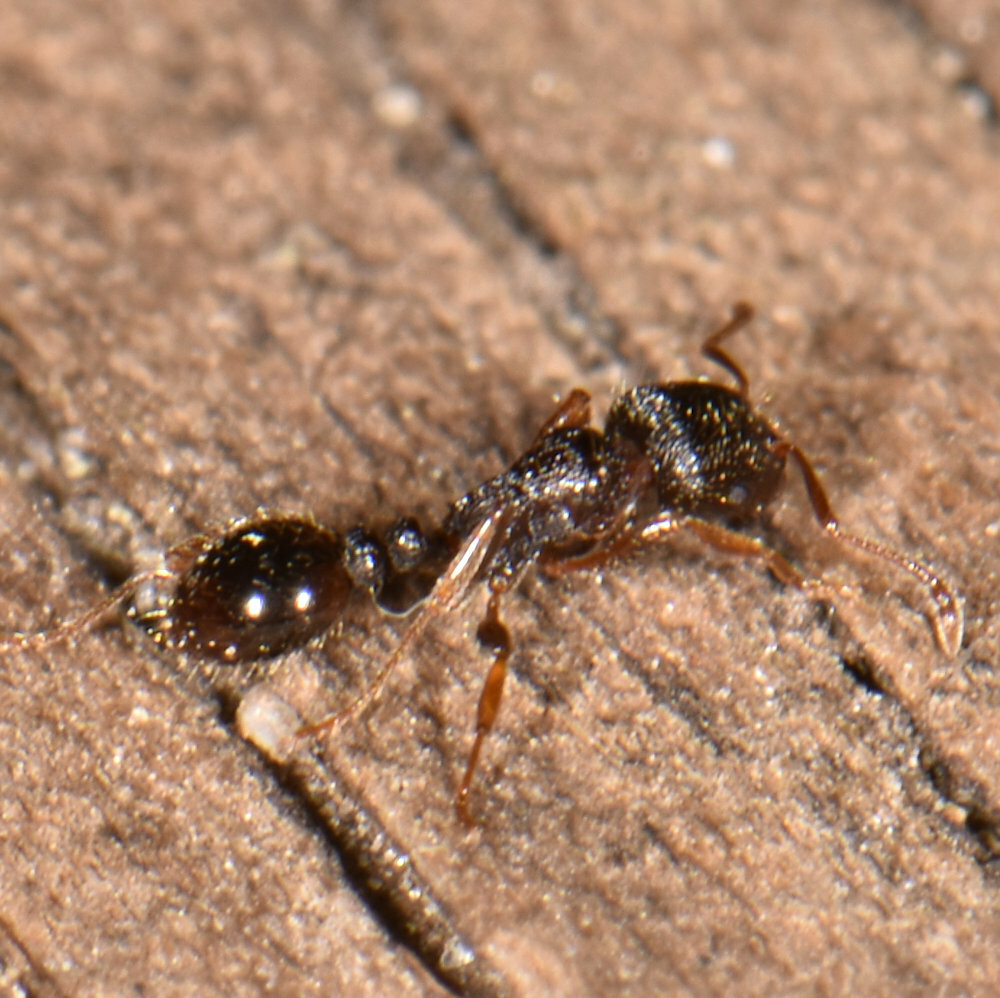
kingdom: Animalia
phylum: Arthropoda
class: Insecta
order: Hymenoptera
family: Formicidae
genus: Tetramorium
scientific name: Tetramorium immigrans
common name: Pavement ant
